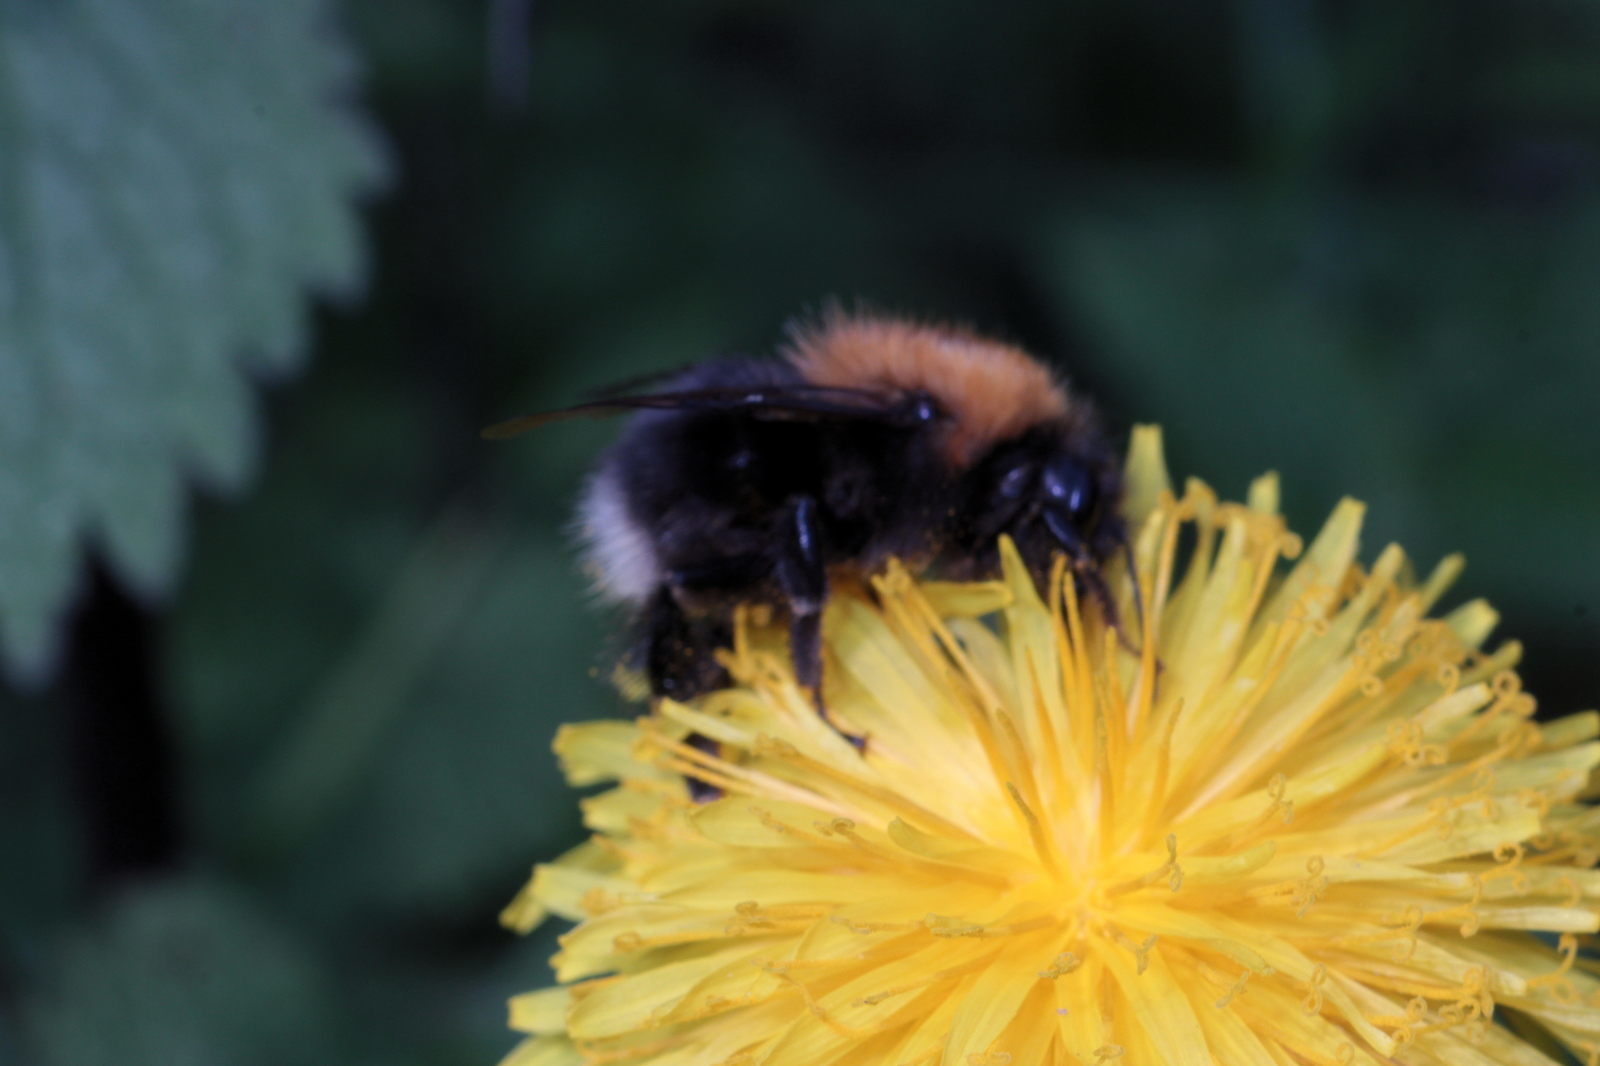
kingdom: Animalia
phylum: Arthropoda
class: Insecta
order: Hymenoptera
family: Apidae
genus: Bombus
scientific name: Bombus hypnorum
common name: New garden bumblebee
